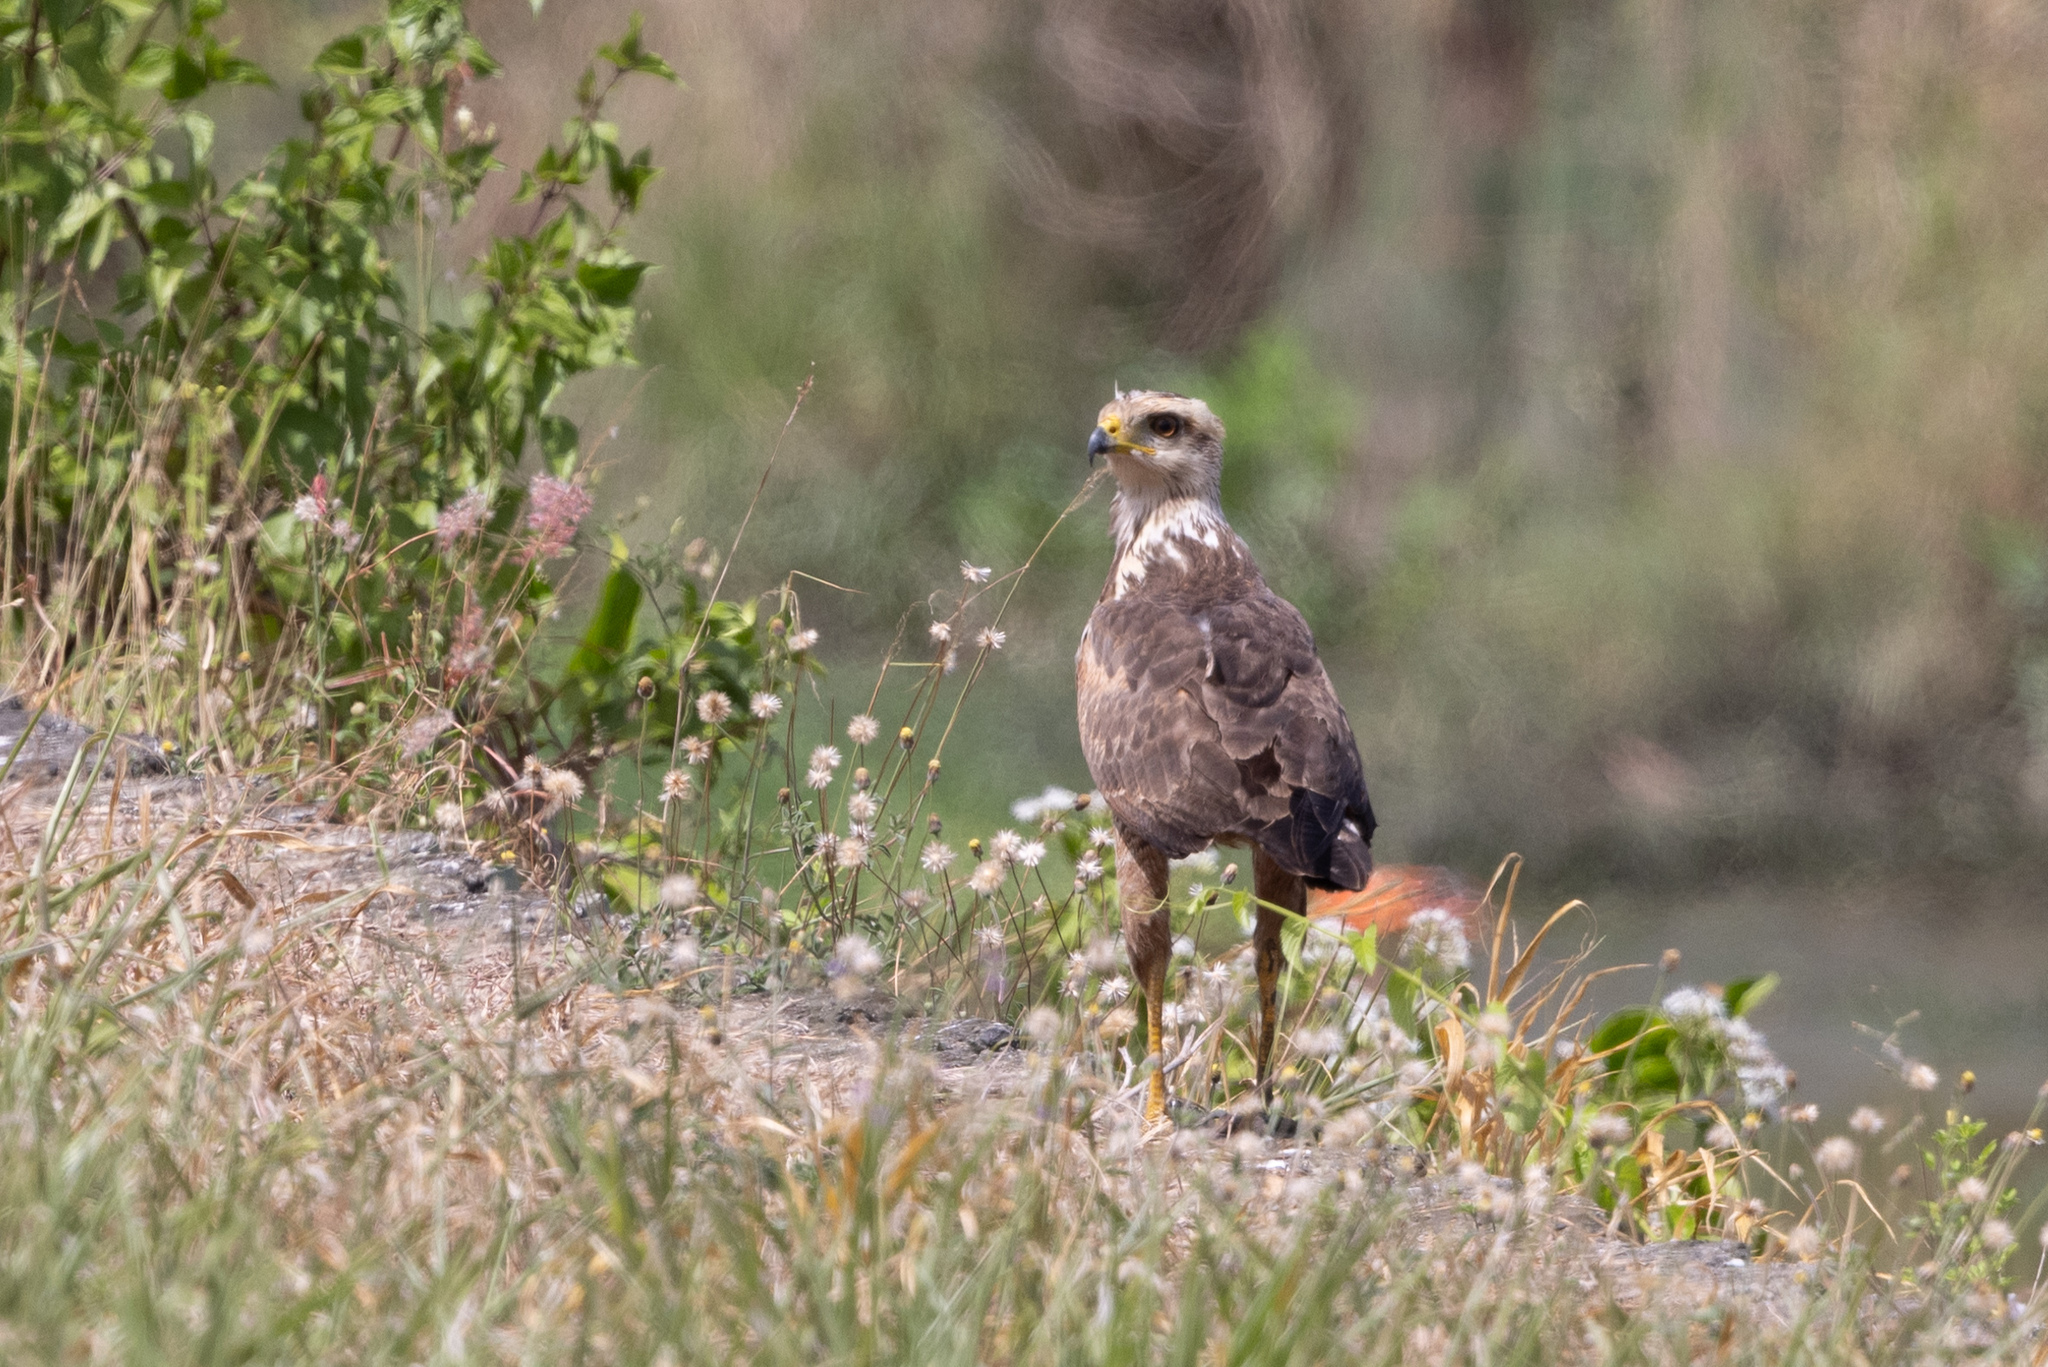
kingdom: Animalia
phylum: Chordata
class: Aves
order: Accipitriformes
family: Accipitridae
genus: Buteogallus
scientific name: Buteogallus meridionalis
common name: Savanna hawk
